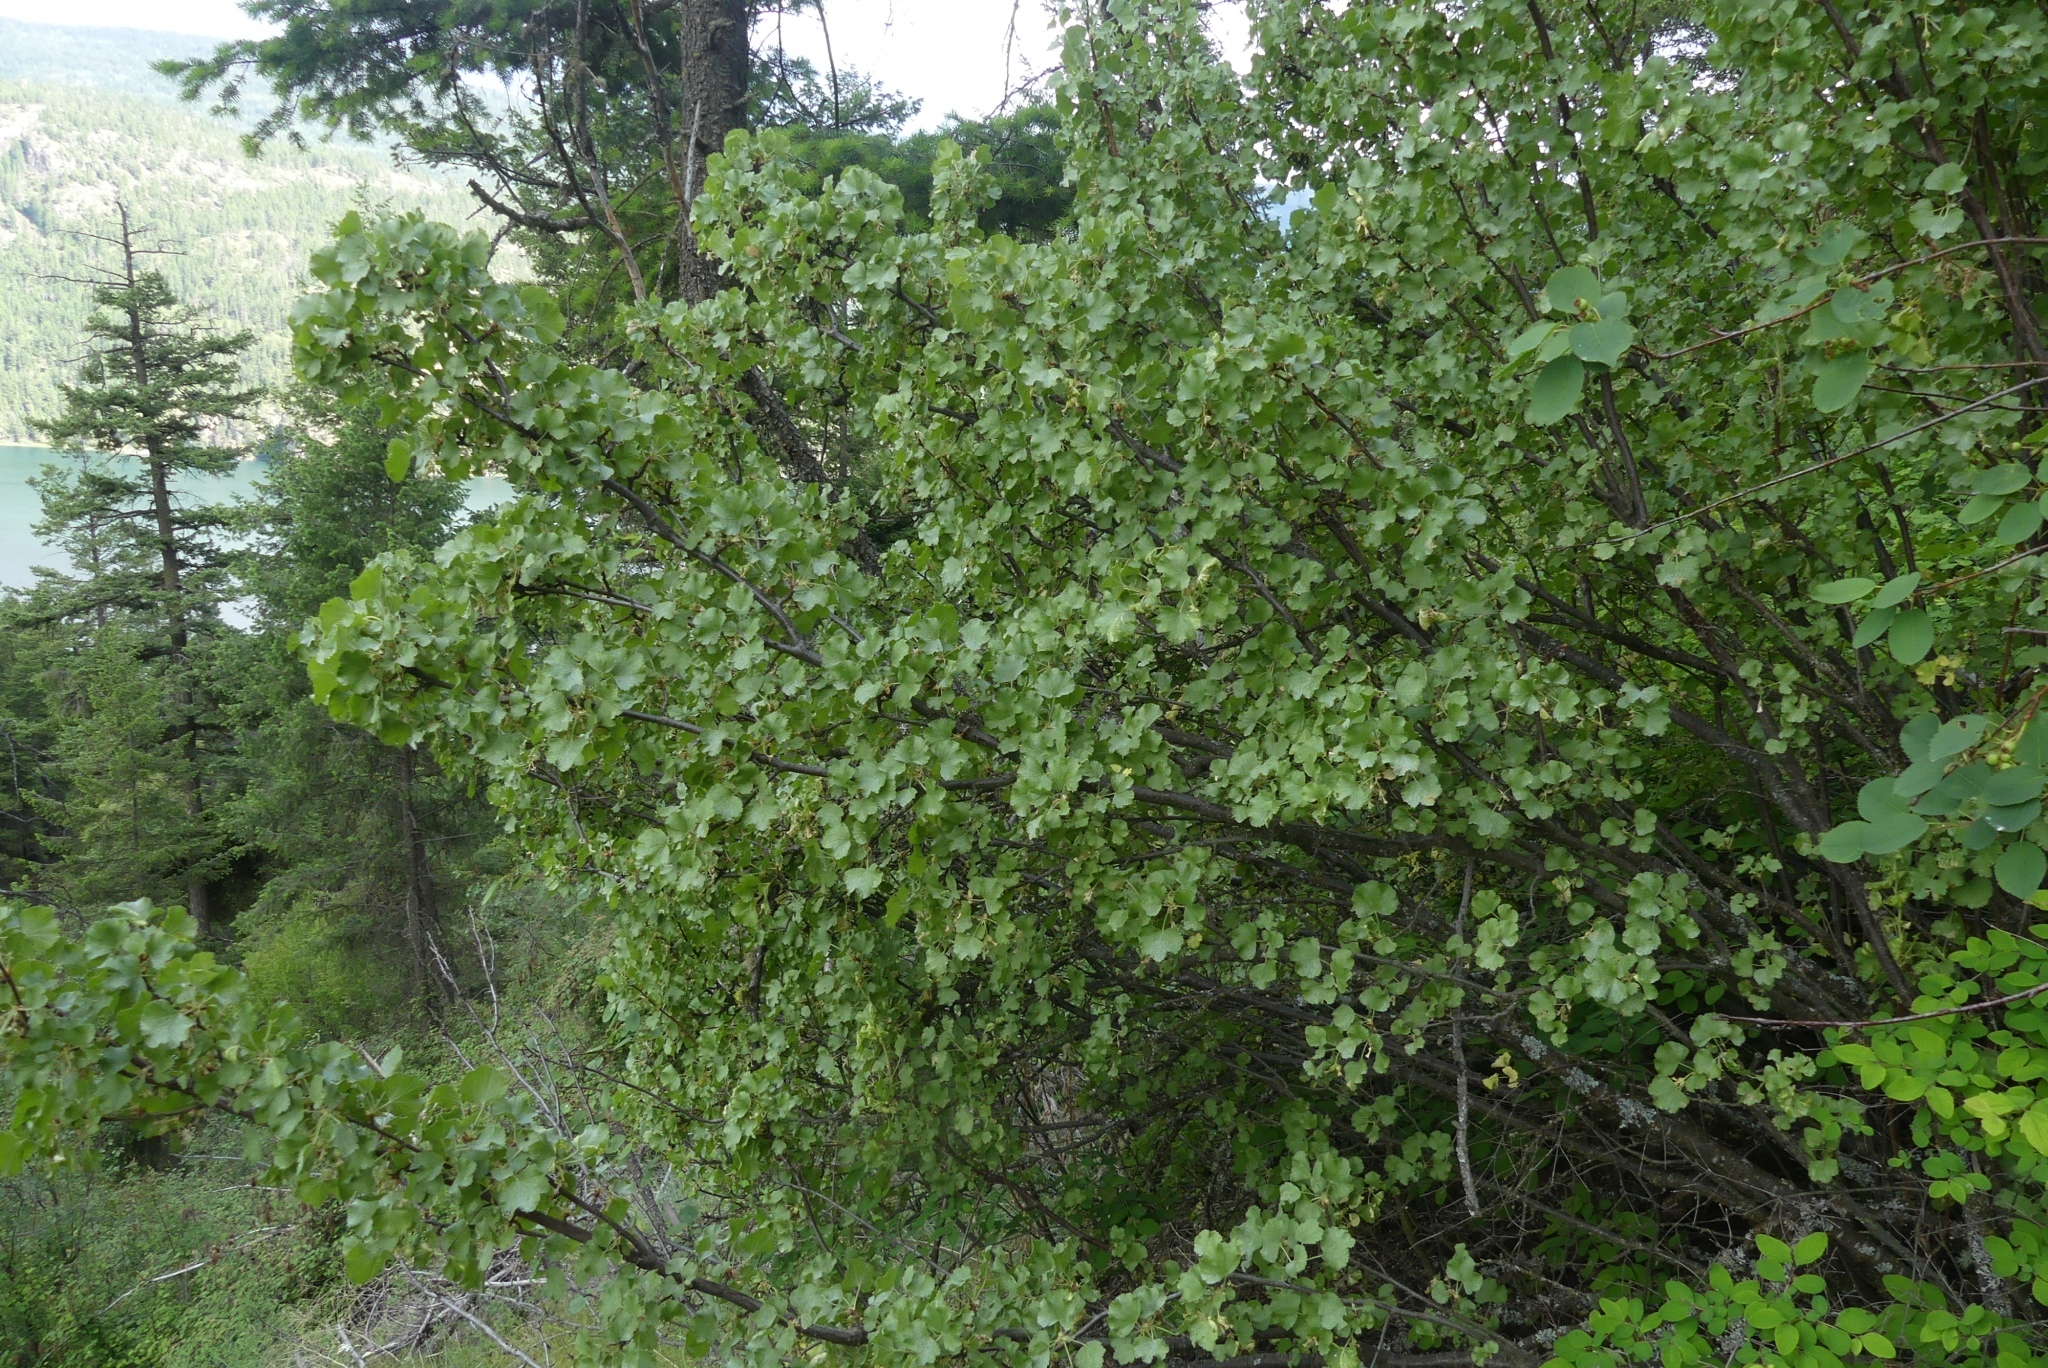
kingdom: Plantae
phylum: Tracheophyta
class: Magnoliopsida
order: Saxifragales
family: Grossulariaceae
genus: Ribes
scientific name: Ribes cereum
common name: Wax currant
